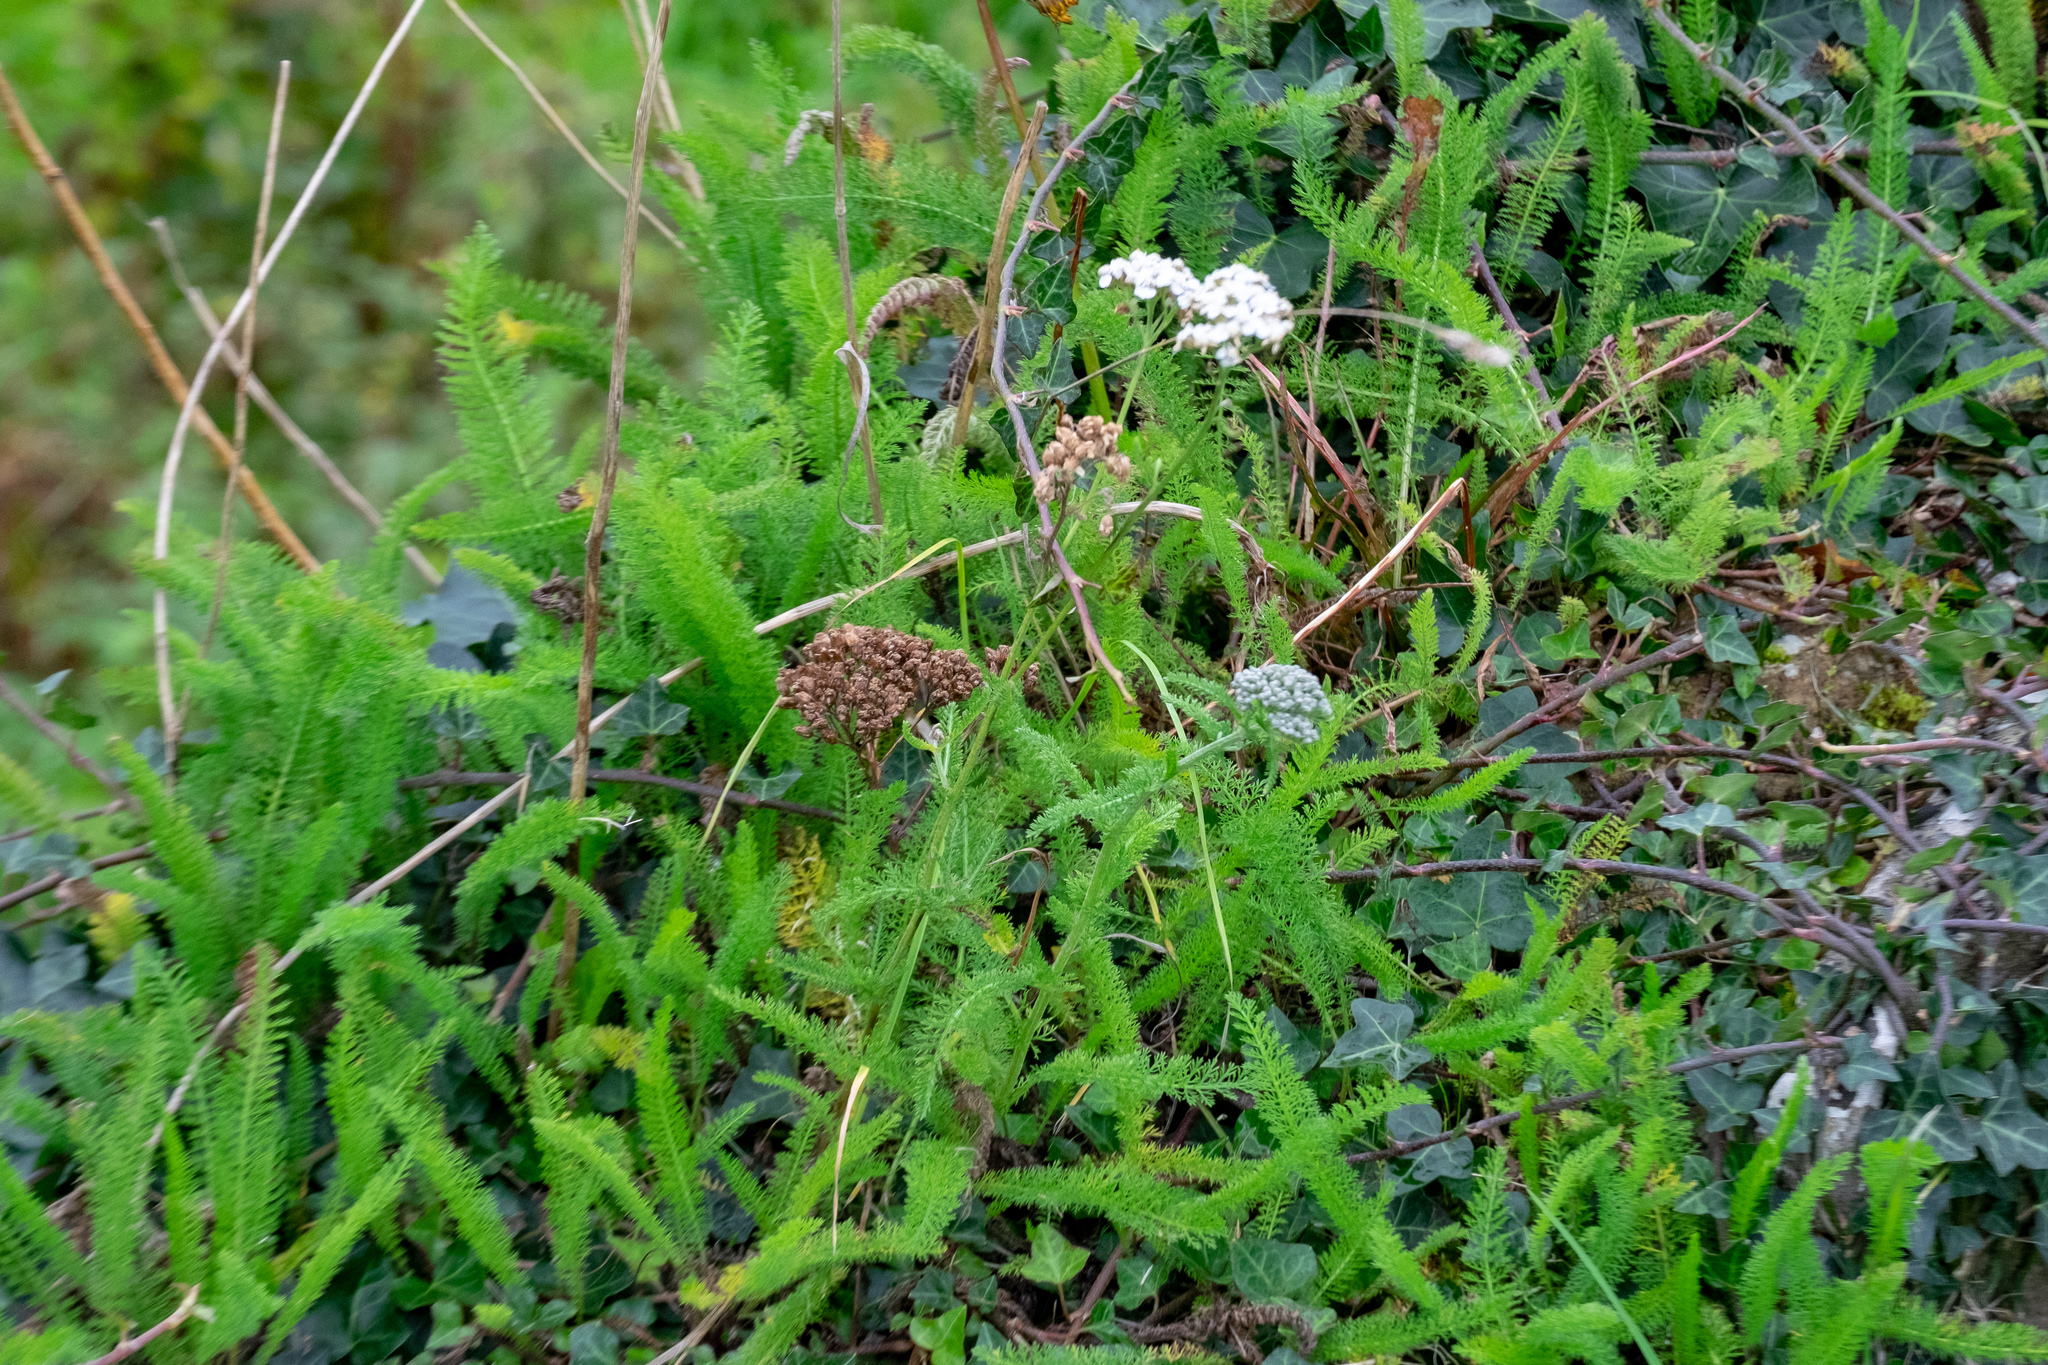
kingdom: Plantae
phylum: Tracheophyta
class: Magnoliopsida
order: Asterales
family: Asteraceae
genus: Achillea
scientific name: Achillea millefolium
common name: Yarrow
